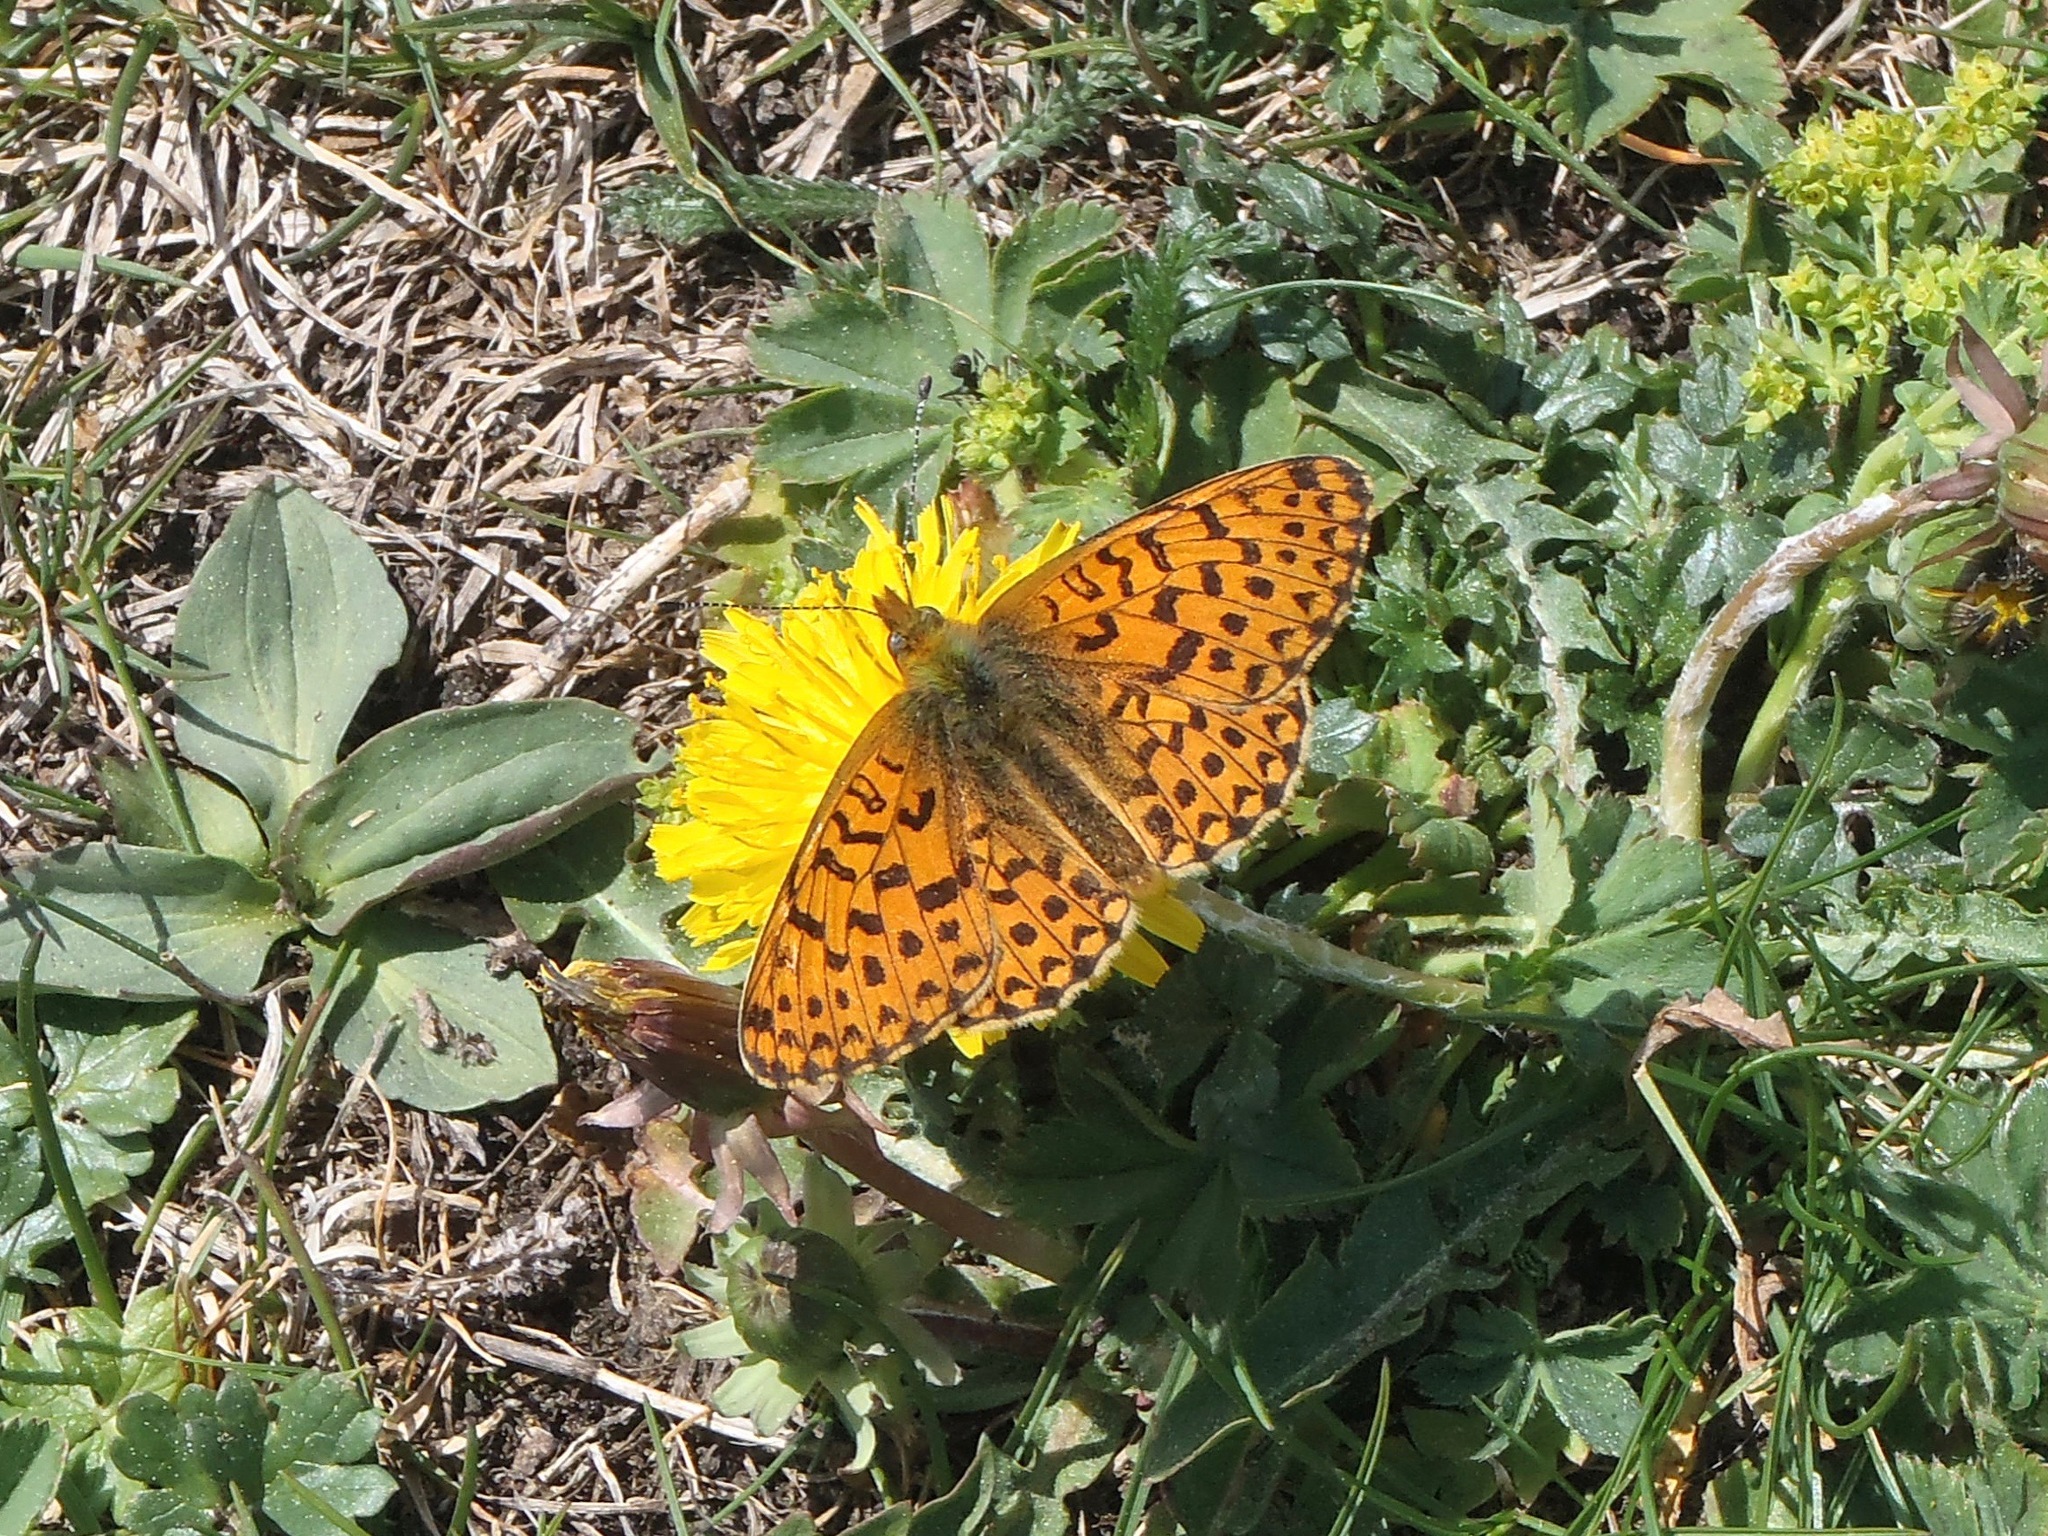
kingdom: Animalia
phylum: Arthropoda
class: Insecta
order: Lepidoptera
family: Nymphalidae
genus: Clossiana
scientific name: Clossiana euphrosyne
